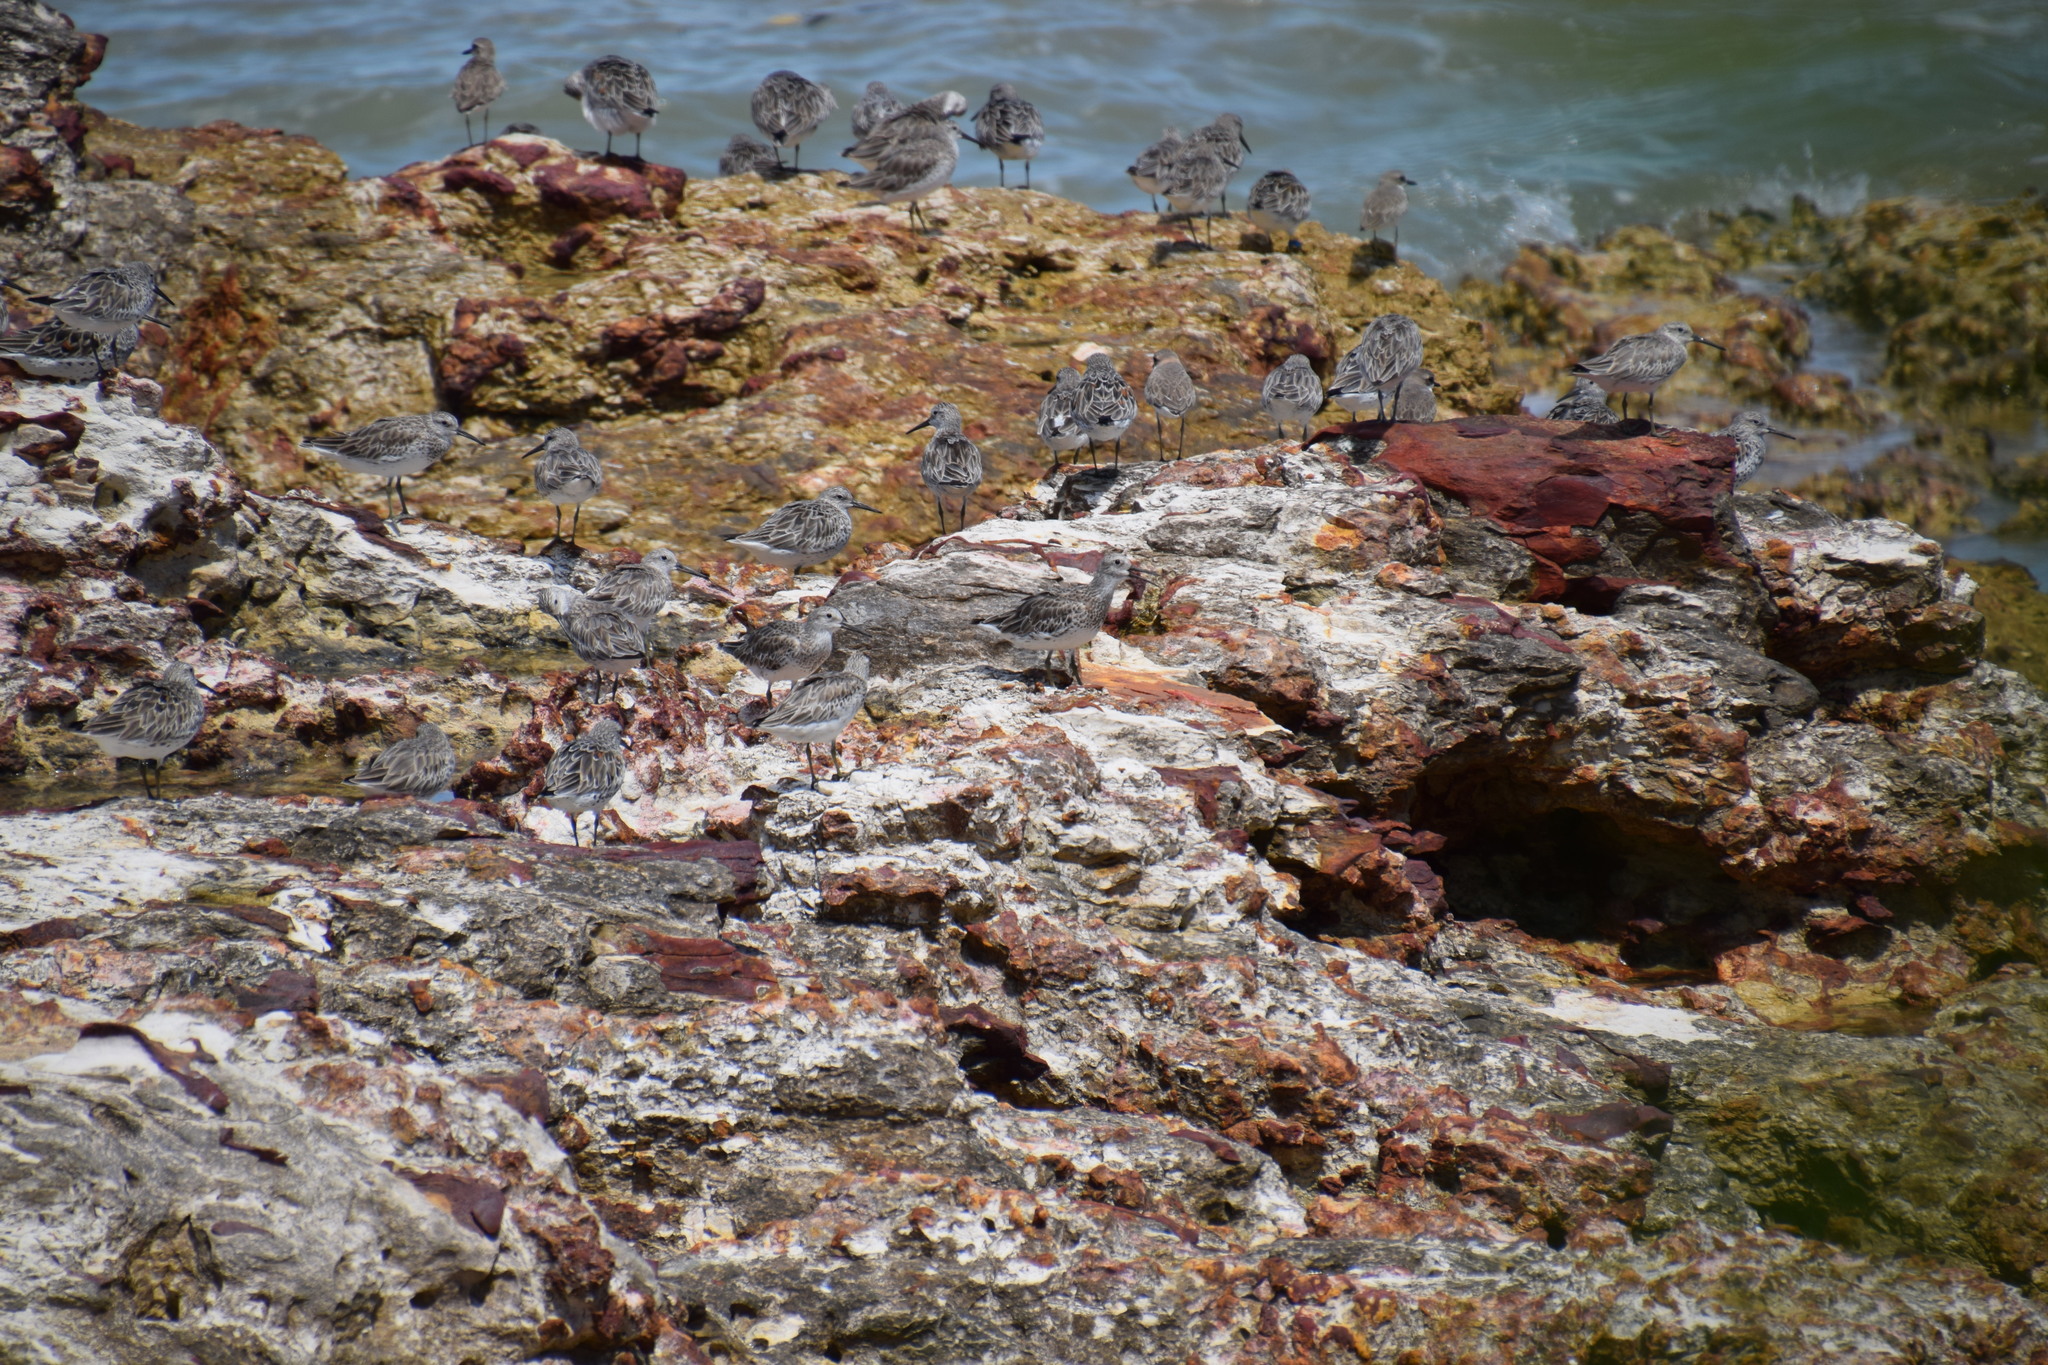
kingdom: Animalia
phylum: Chordata
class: Aves
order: Charadriiformes
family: Scolopacidae
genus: Calidris
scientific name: Calidris tenuirostris
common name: Great knot
